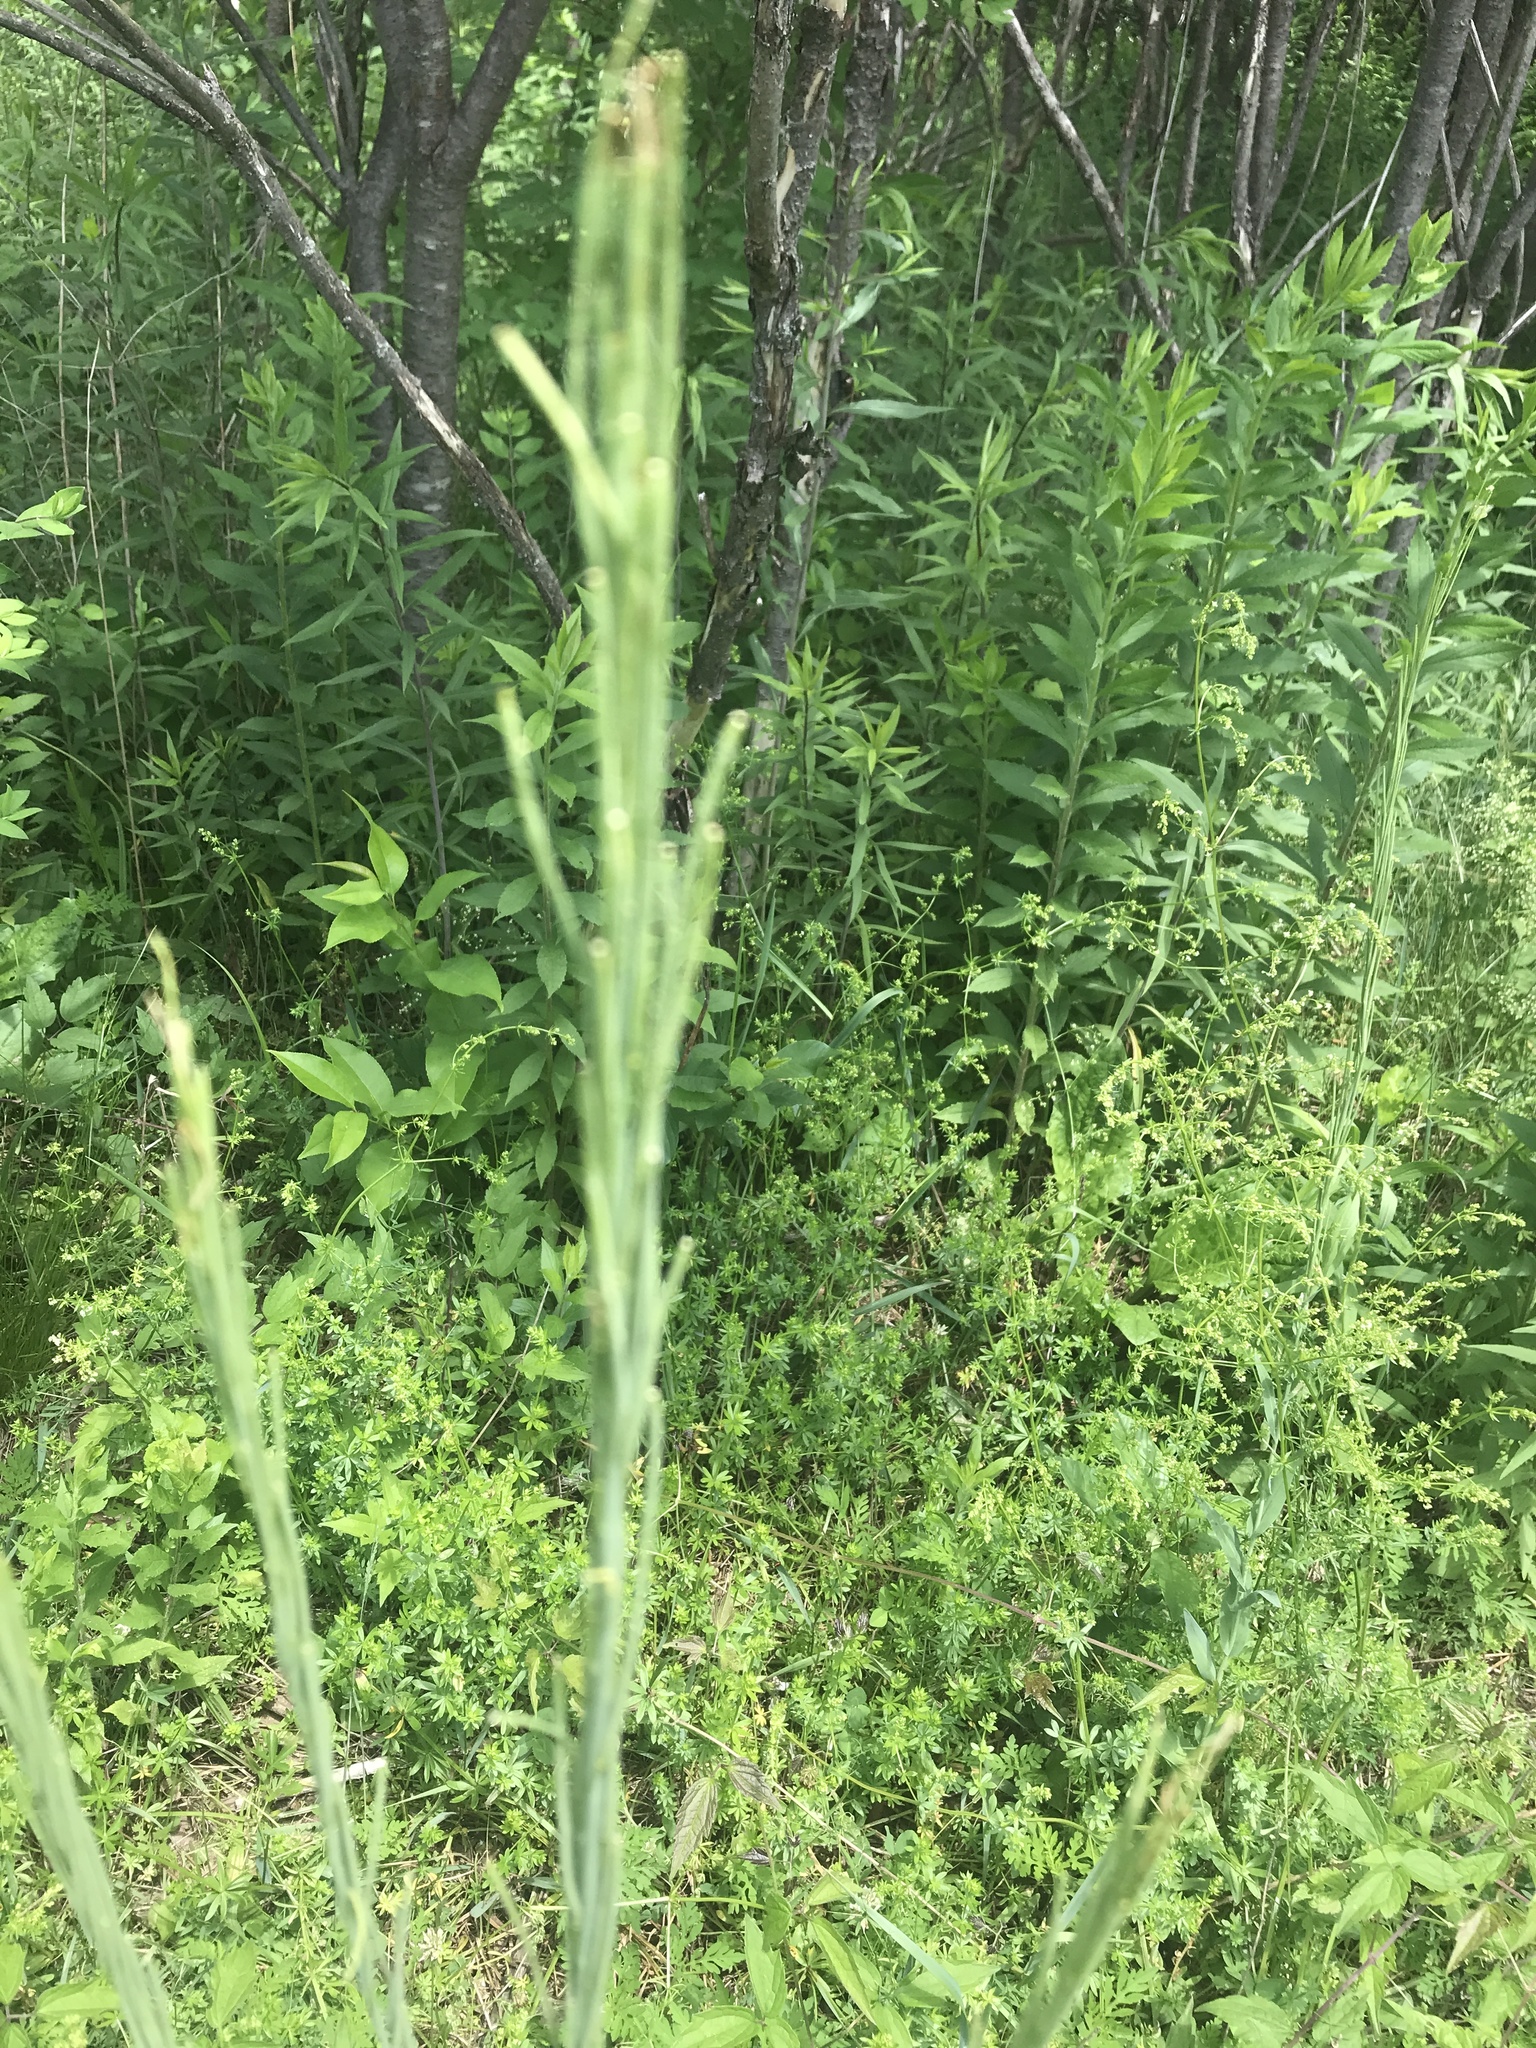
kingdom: Plantae
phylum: Tracheophyta
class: Magnoliopsida
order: Brassicales
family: Brassicaceae
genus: Turritis
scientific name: Turritis glabra
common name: Tower rockcress
